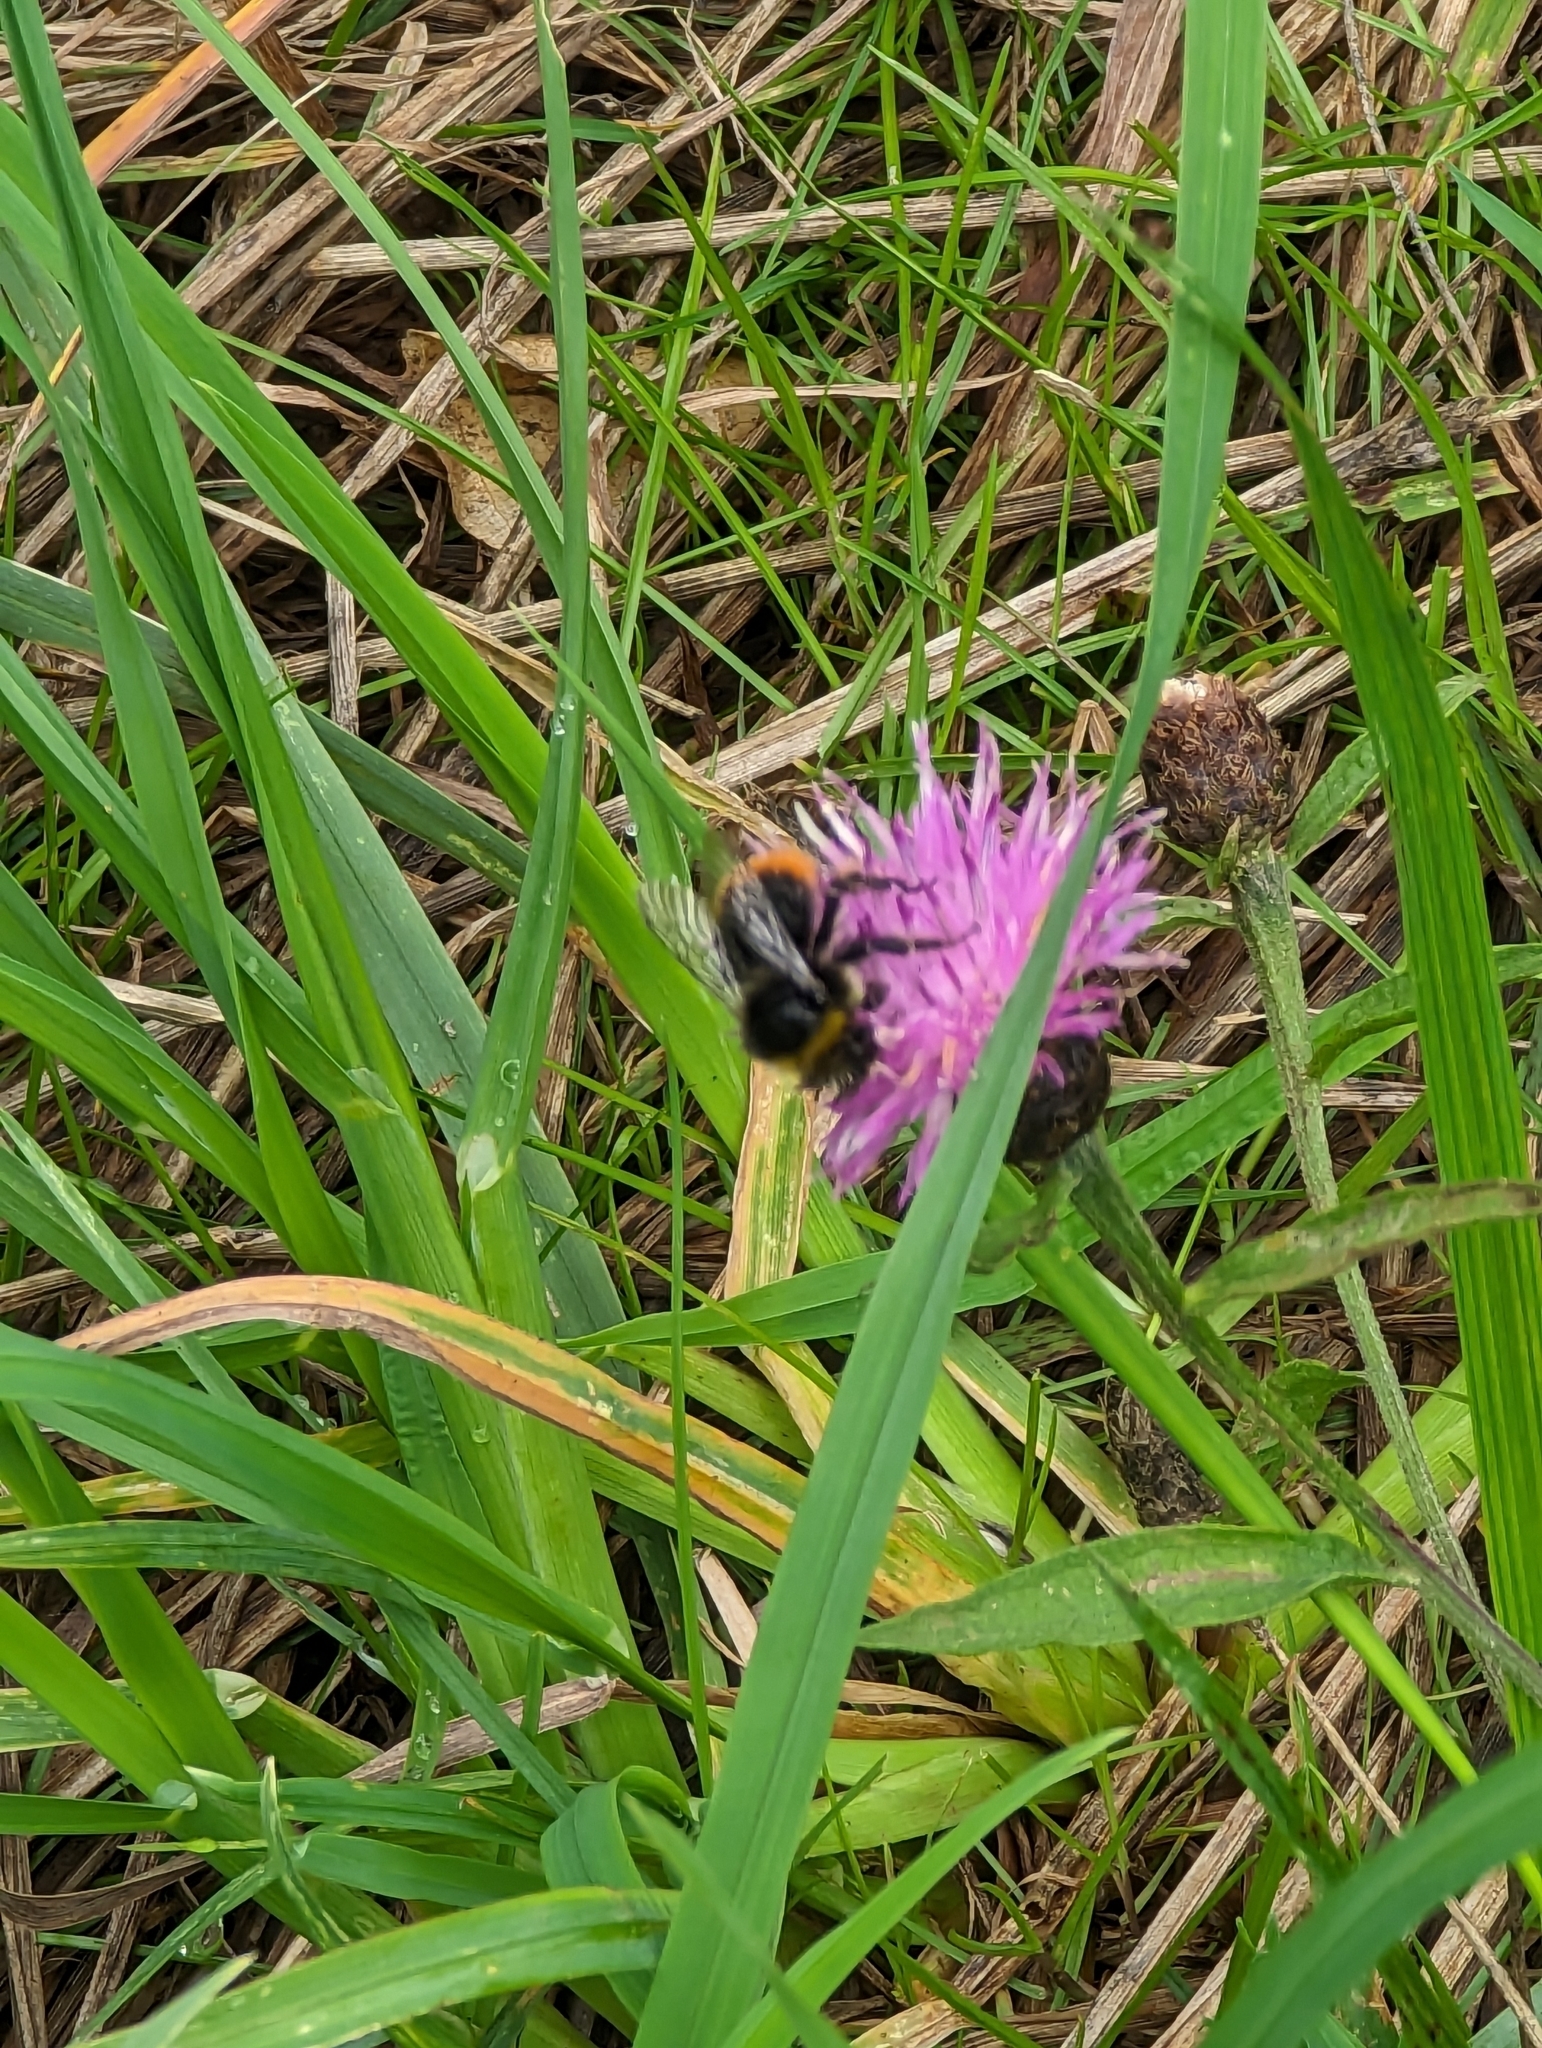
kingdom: Animalia
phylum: Arthropoda
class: Insecta
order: Hymenoptera
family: Apidae
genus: Bombus
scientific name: Bombus lapidarius
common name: Large red-tailed humble-bee
